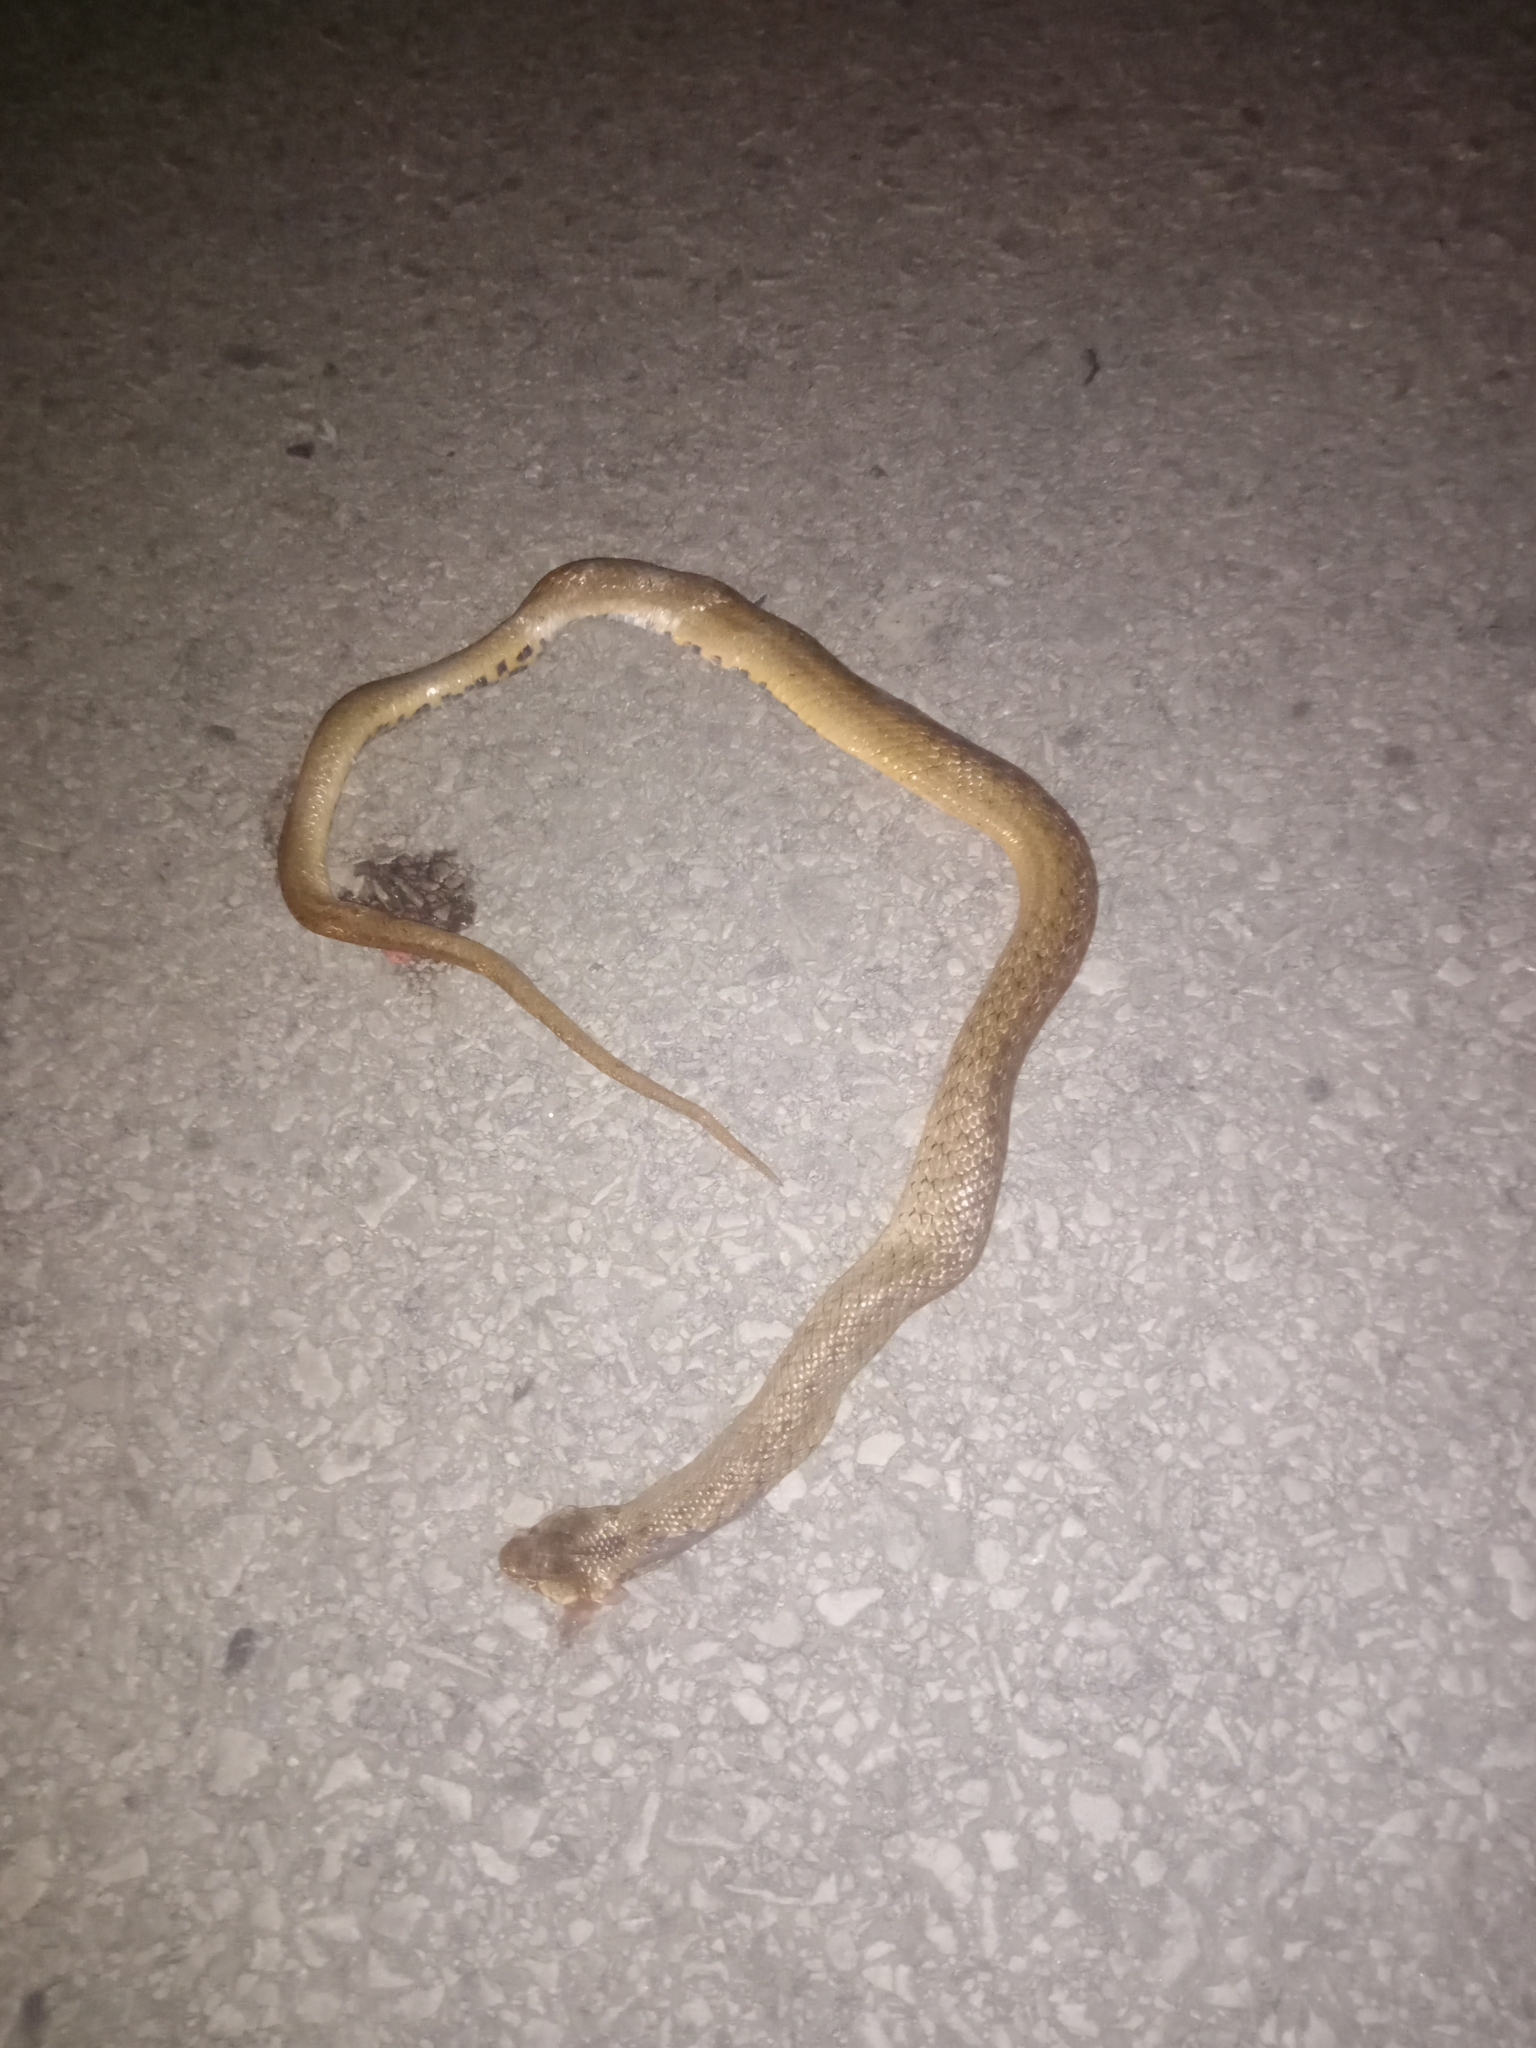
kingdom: Animalia
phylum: Chordata
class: Squamata
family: Colubridae
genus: Macroprotodon
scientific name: Macroprotodon mauritanicus
